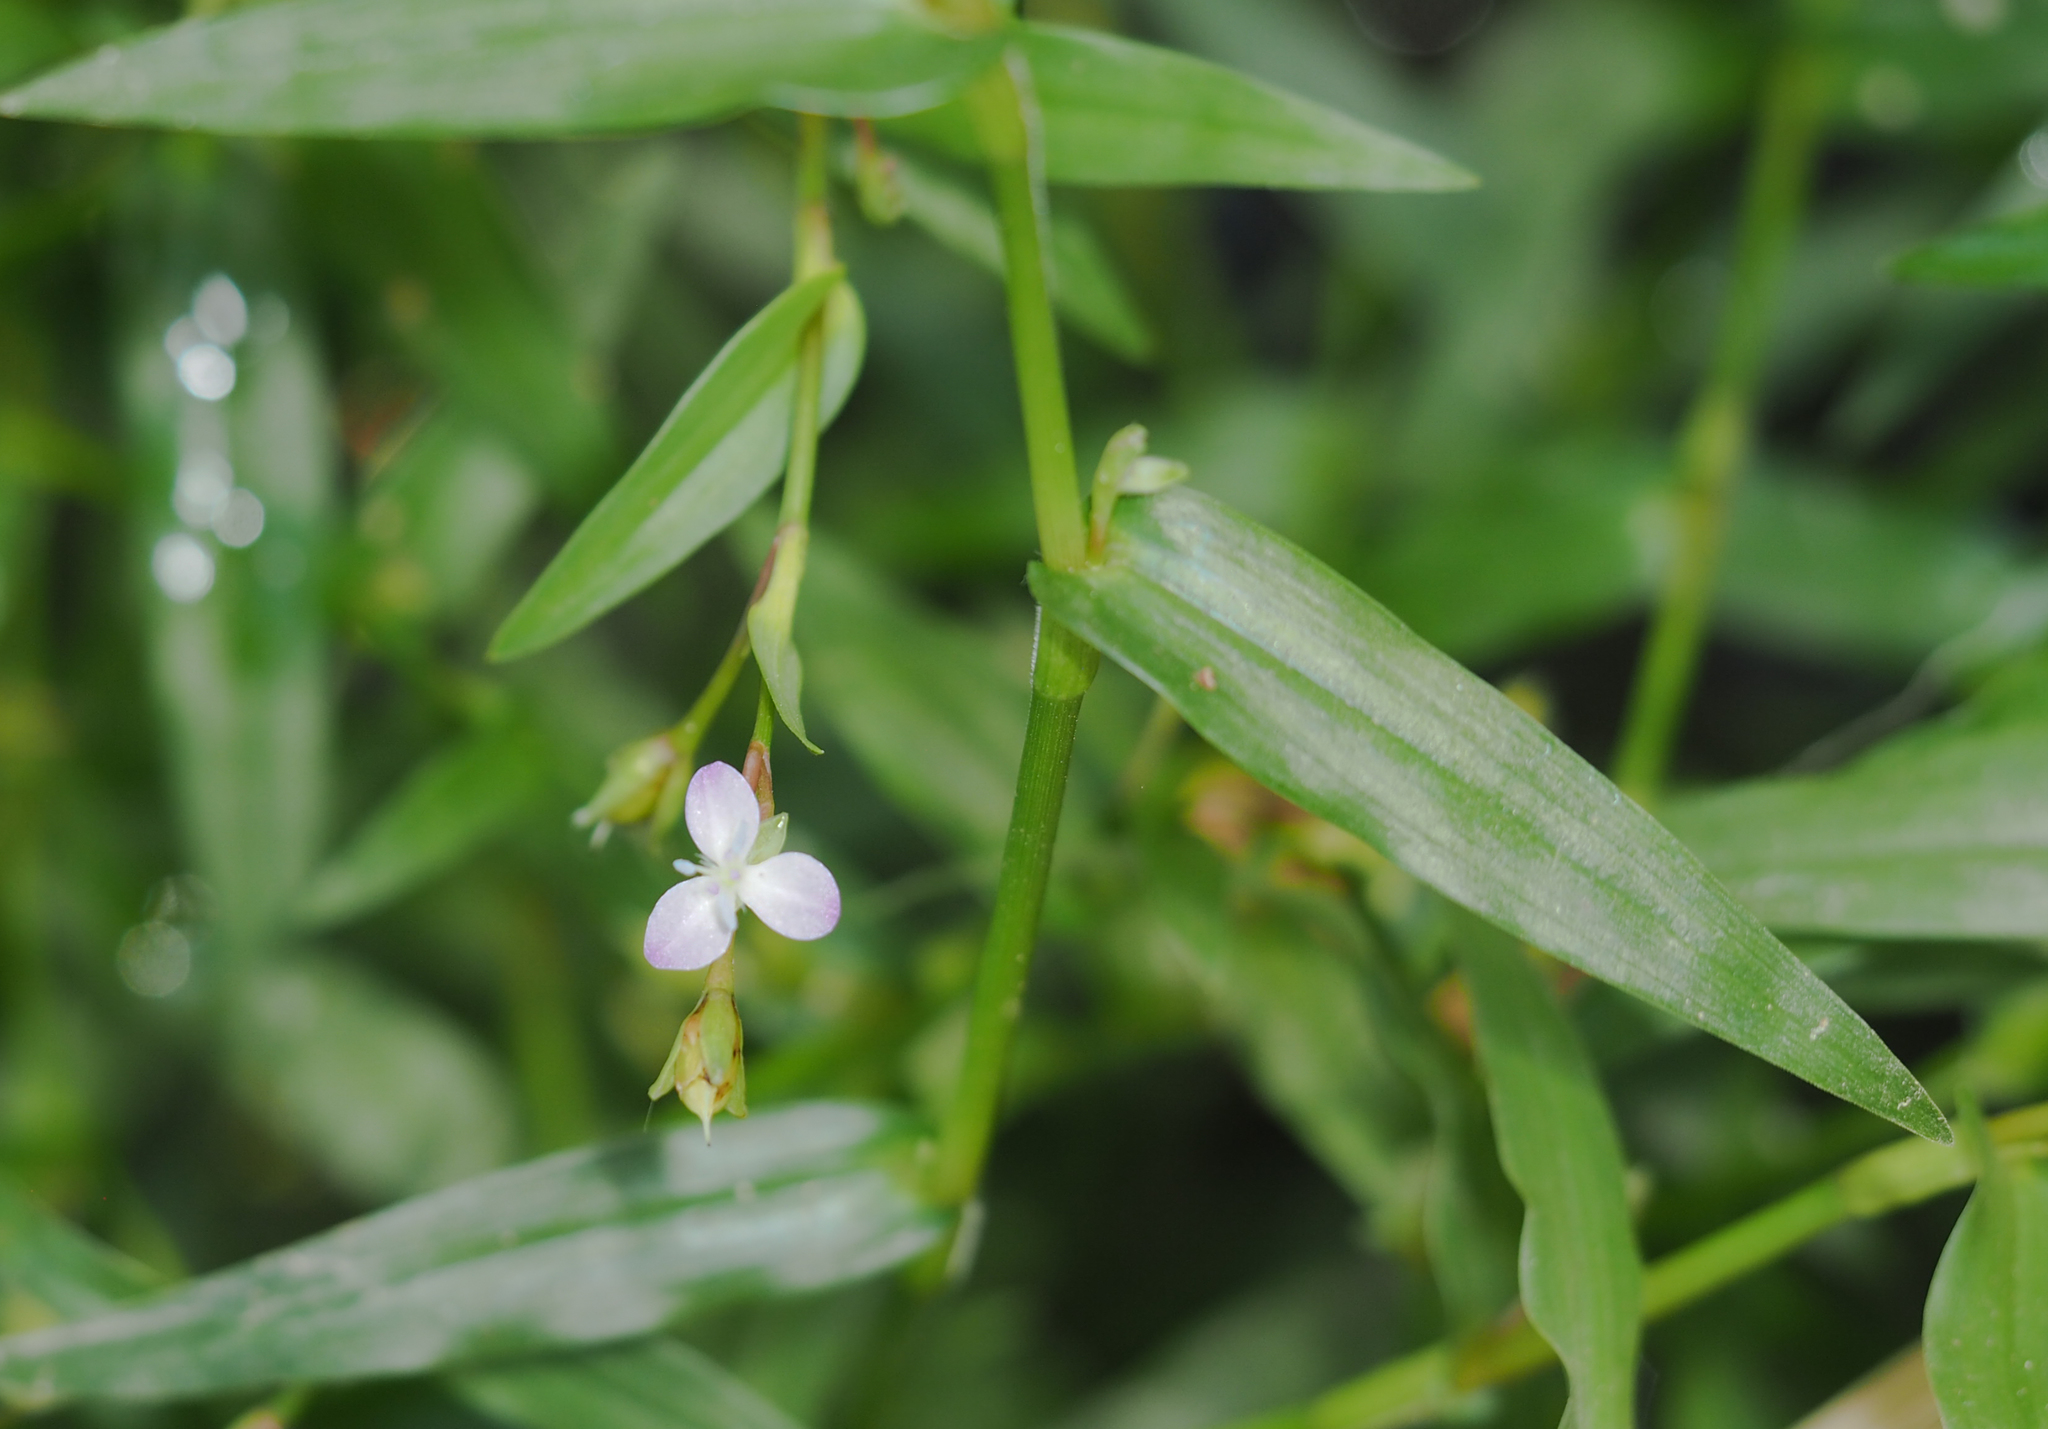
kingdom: Plantae
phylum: Tracheophyta
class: Liliopsida
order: Commelinales
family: Commelinaceae
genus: Murdannia
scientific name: Murdannia keisak
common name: Wartremoving herb
